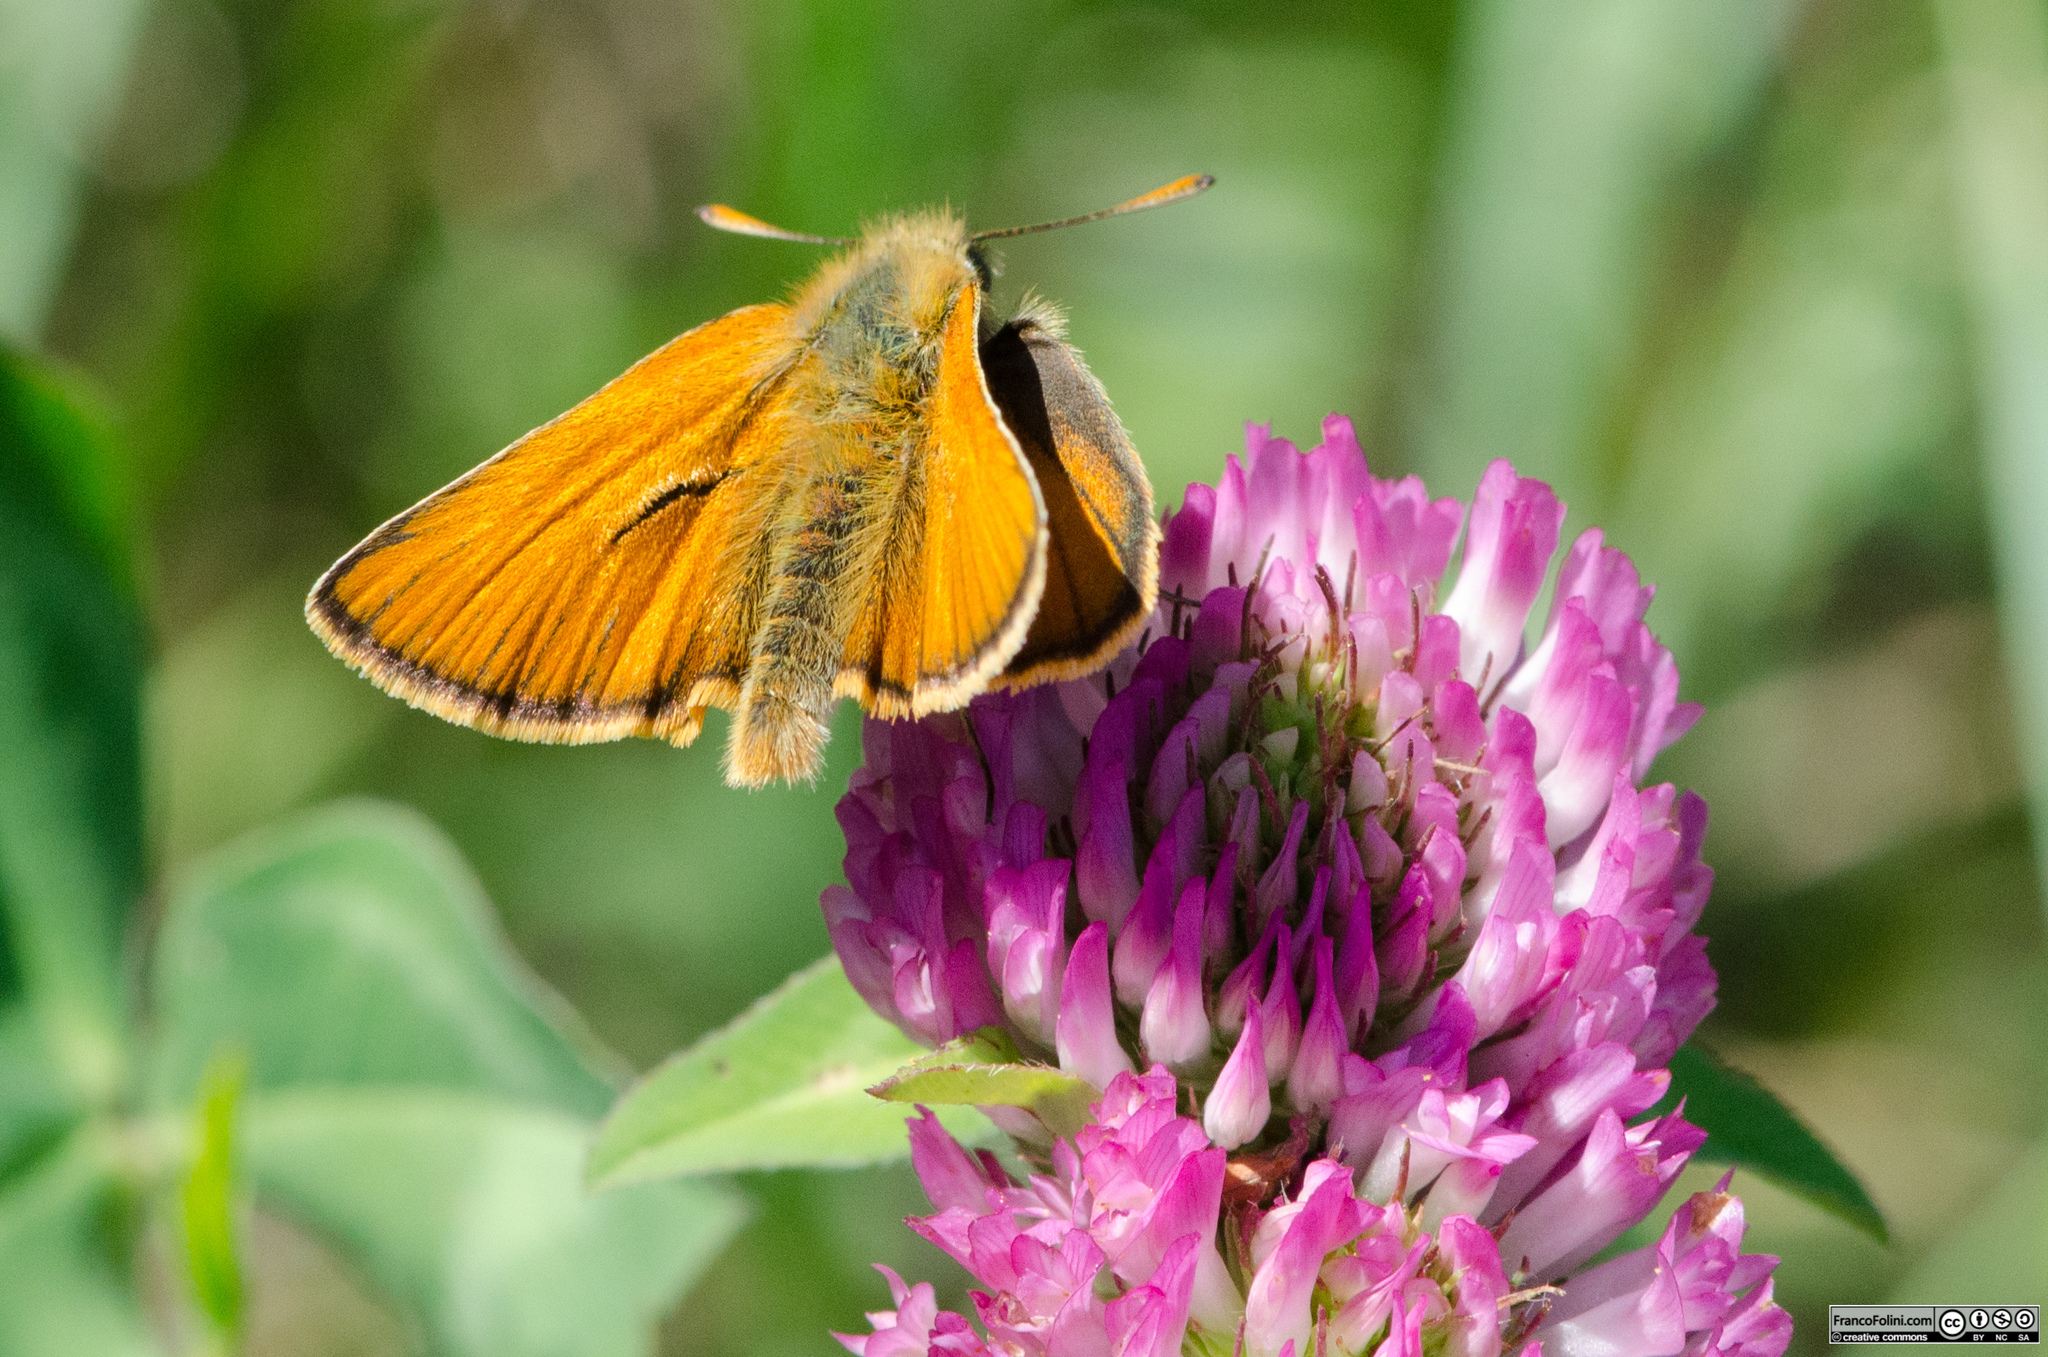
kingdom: Animalia
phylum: Arthropoda
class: Insecta
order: Lepidoptera
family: Hesperiidae
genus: Thymelicus
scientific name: Thymelicus sylvestris
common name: Small skipper
